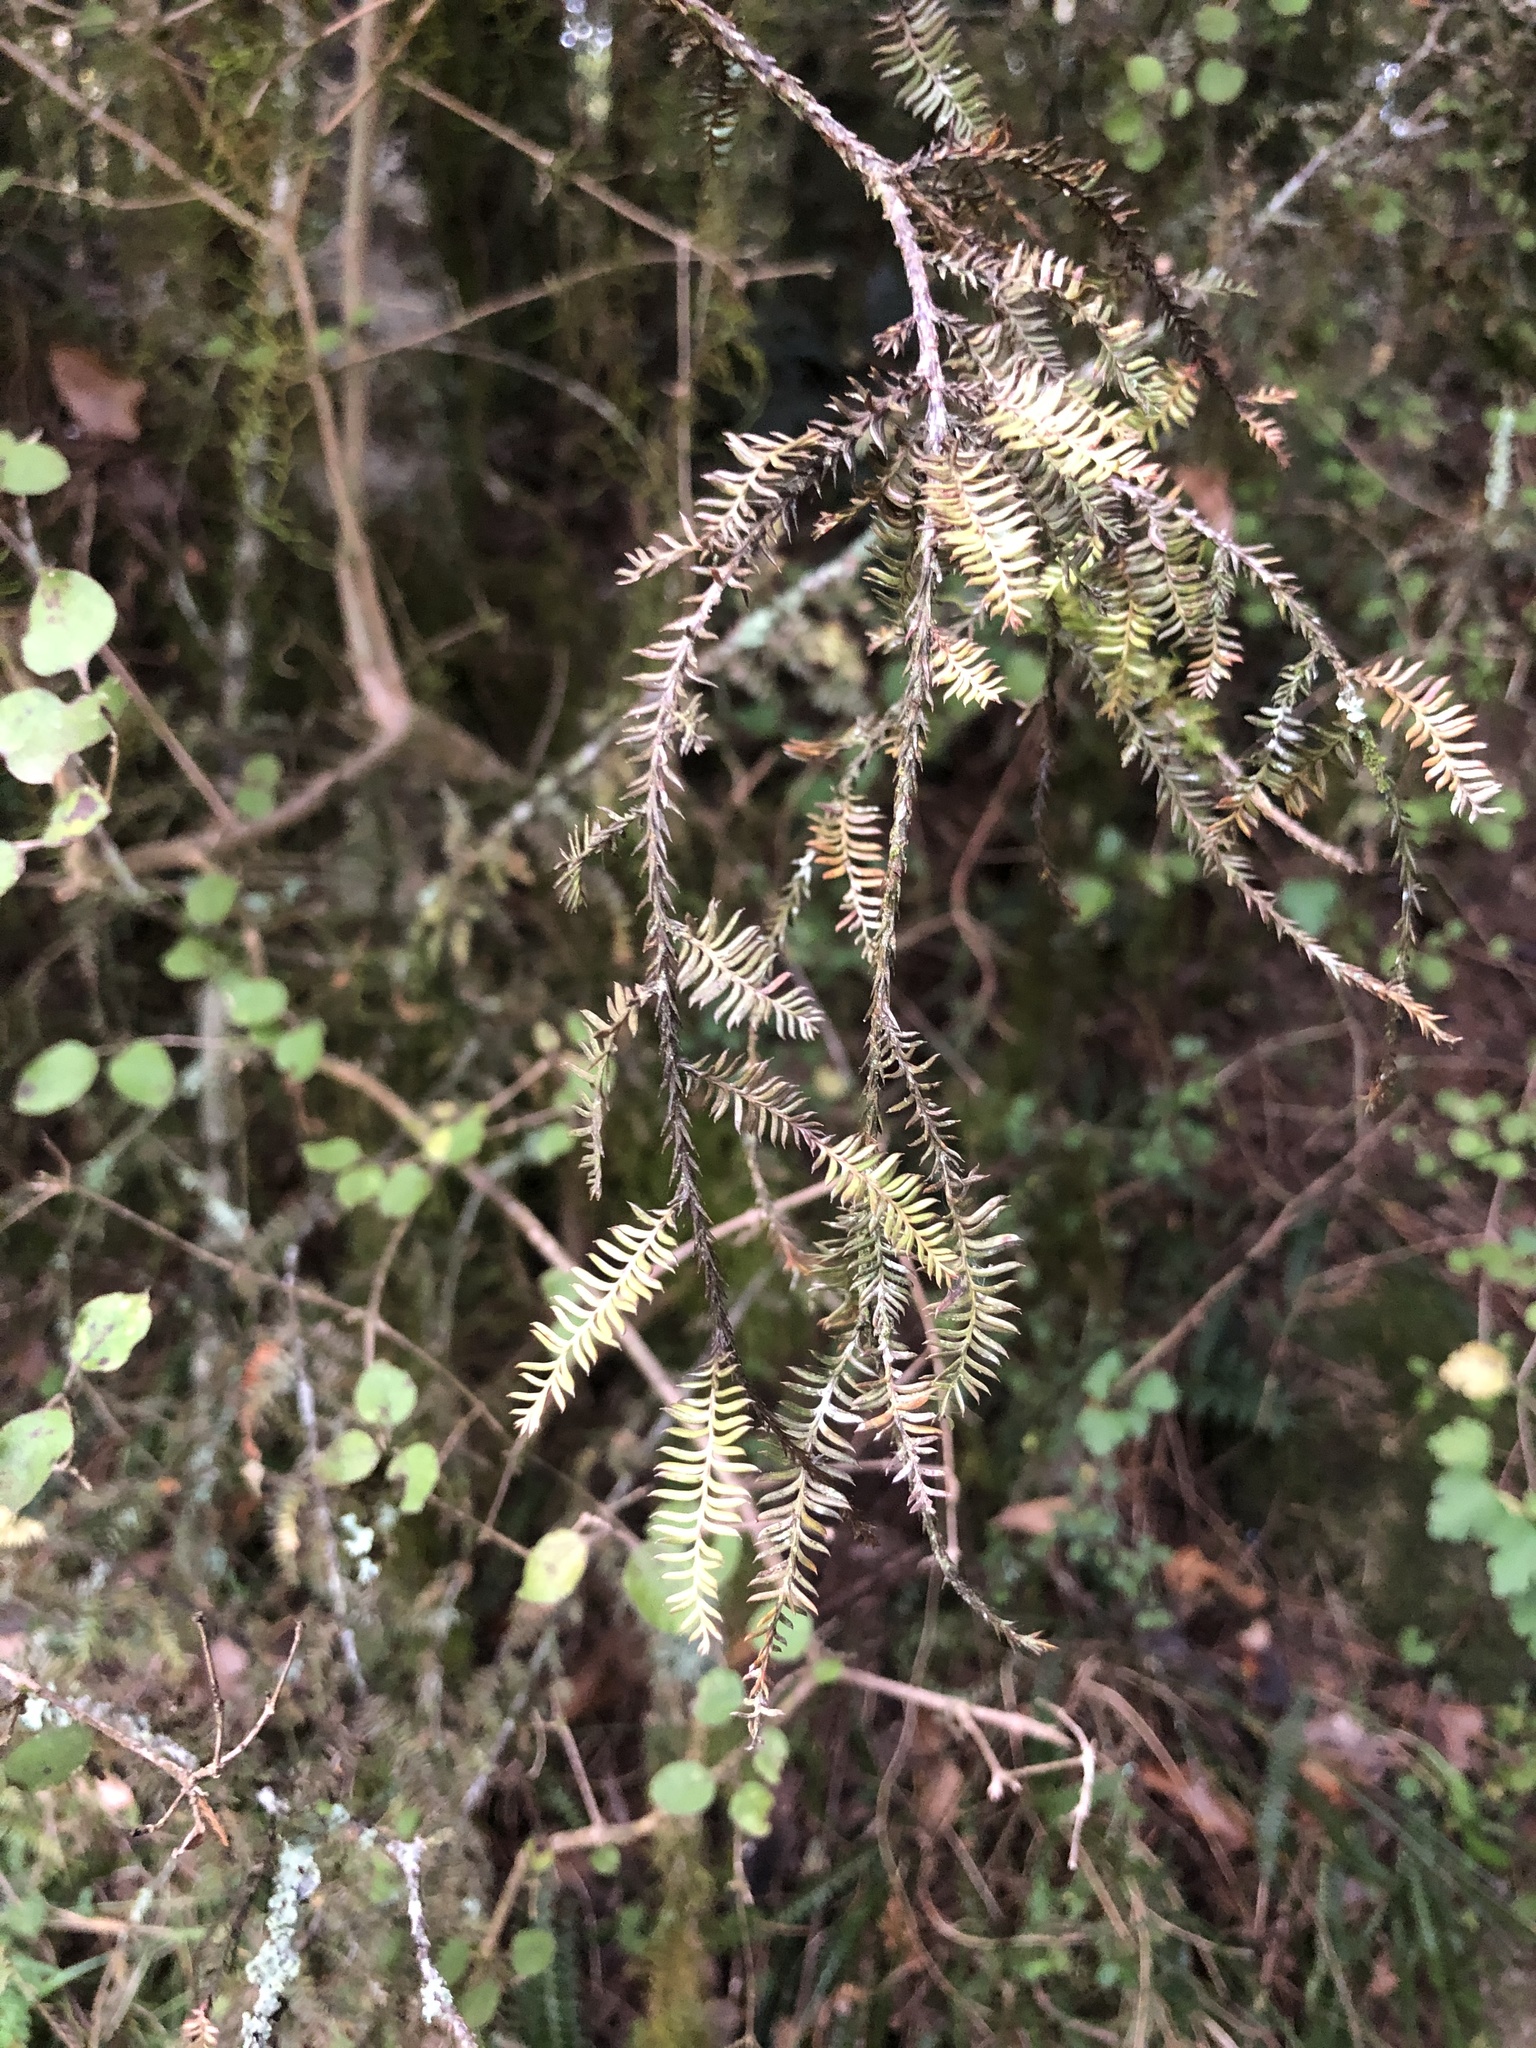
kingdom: Plantae
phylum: Tracheophyta
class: Pinopsida
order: Pinales
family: Podocarpaceae
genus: Dacrycarpus
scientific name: Dacrycarpus dacrydioides
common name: White pine
